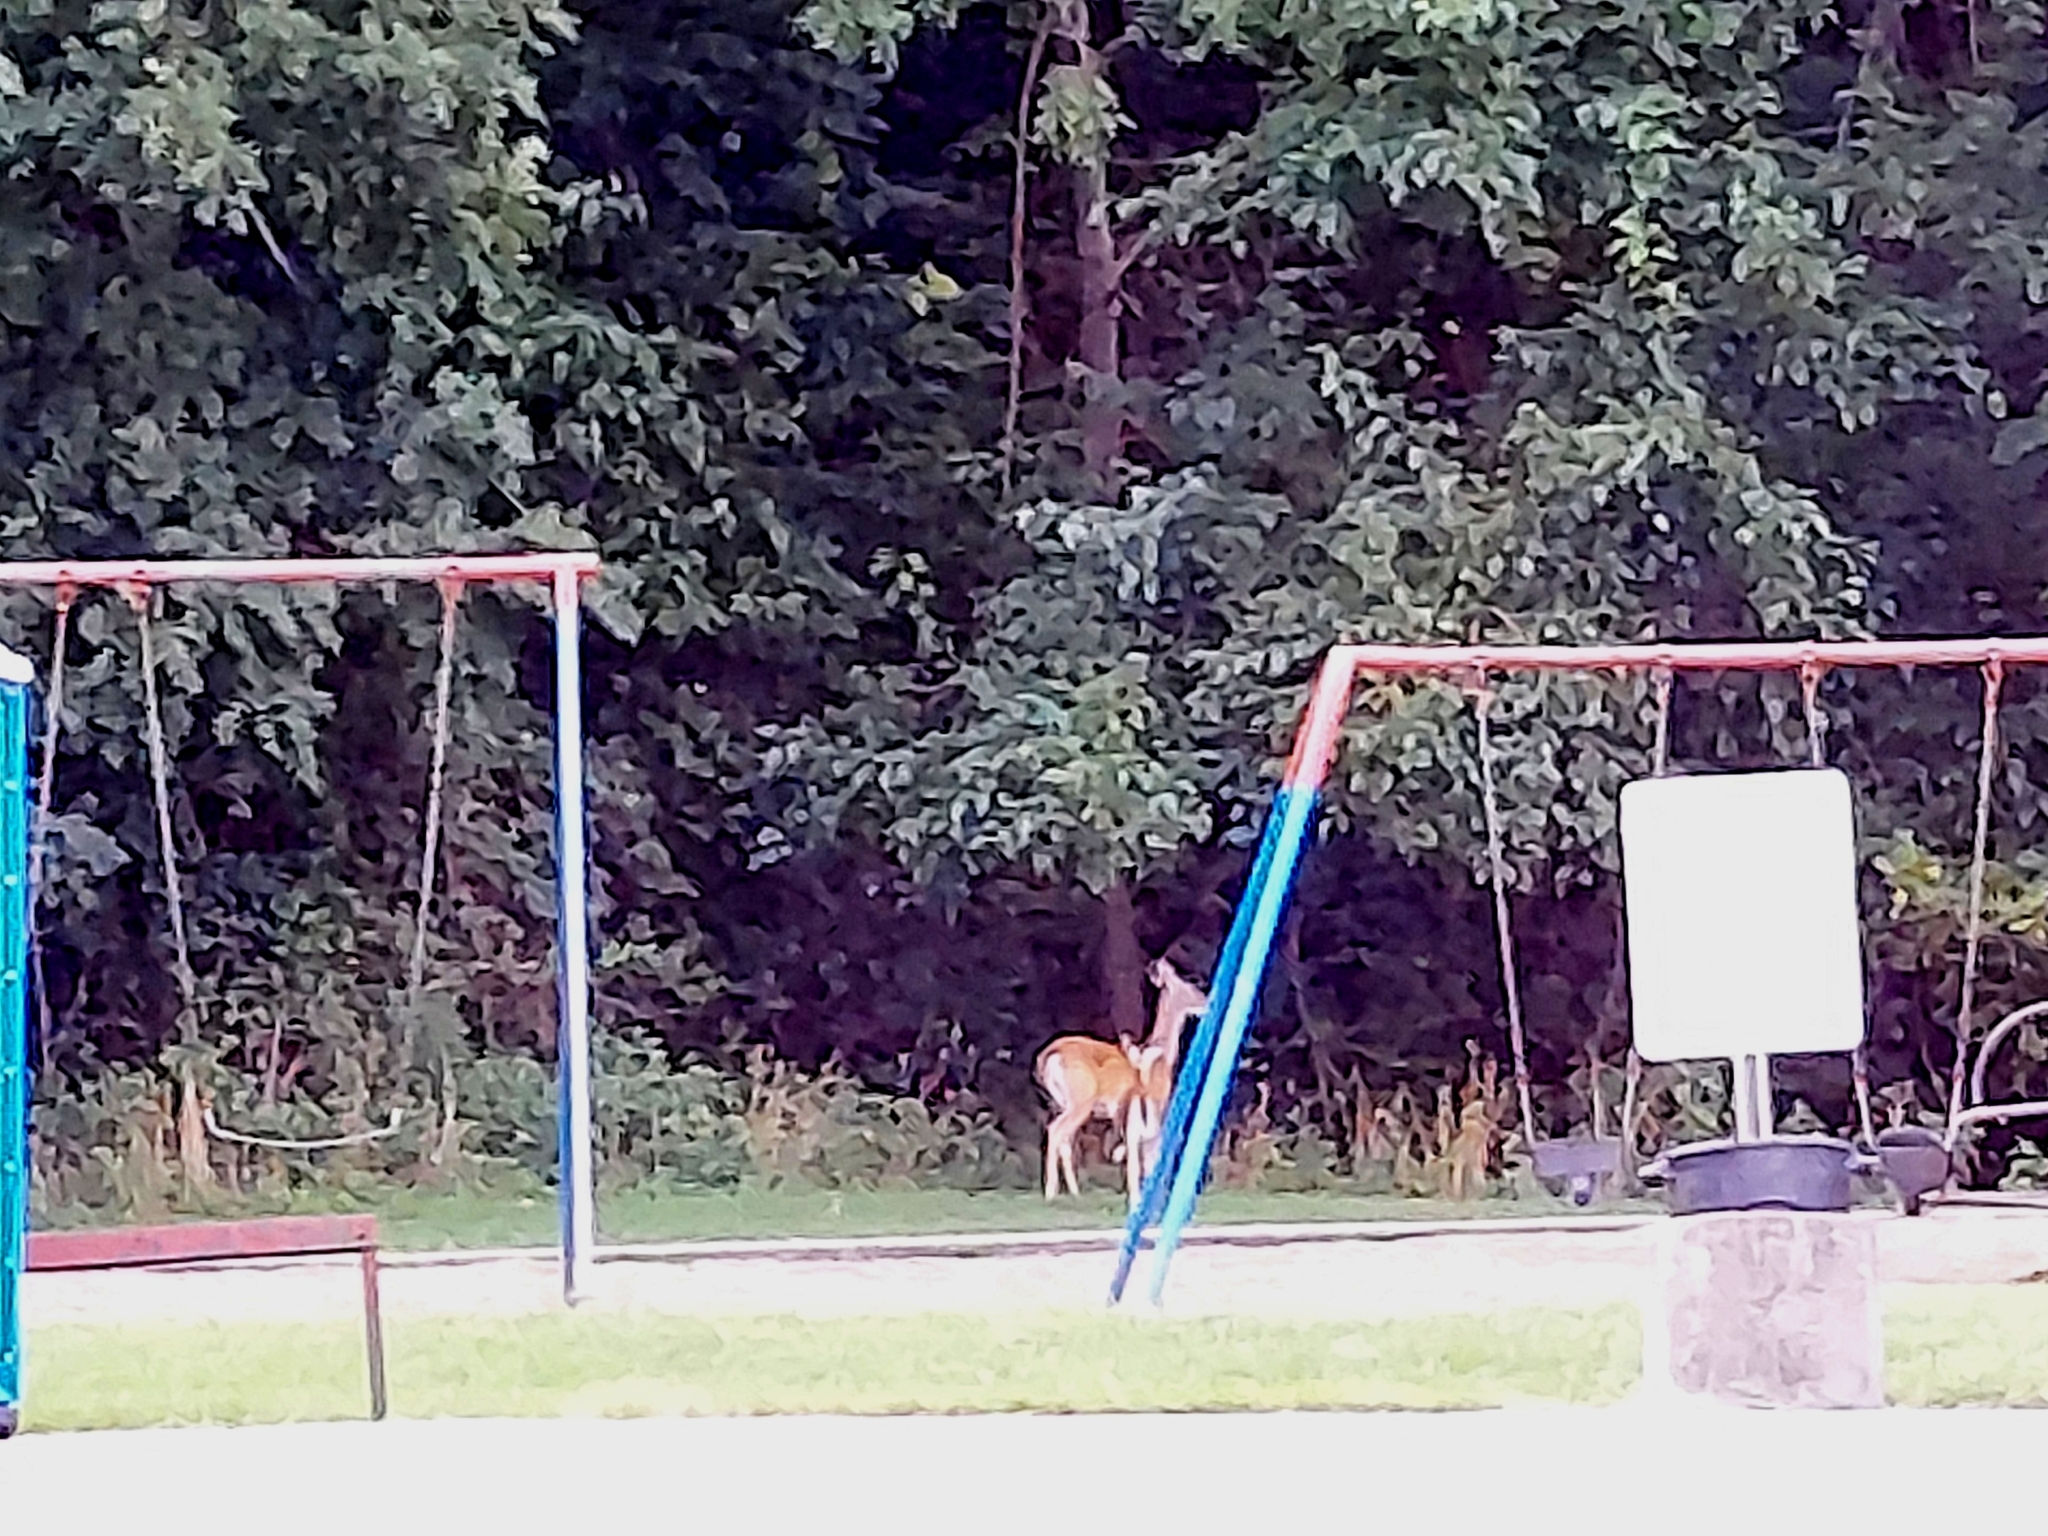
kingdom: Animalia
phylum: Chordata
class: Mammalia
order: Artiodactyla
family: Cervidae
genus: Odocoileus
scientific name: Odocoileus virginianus
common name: White-tailed deer
